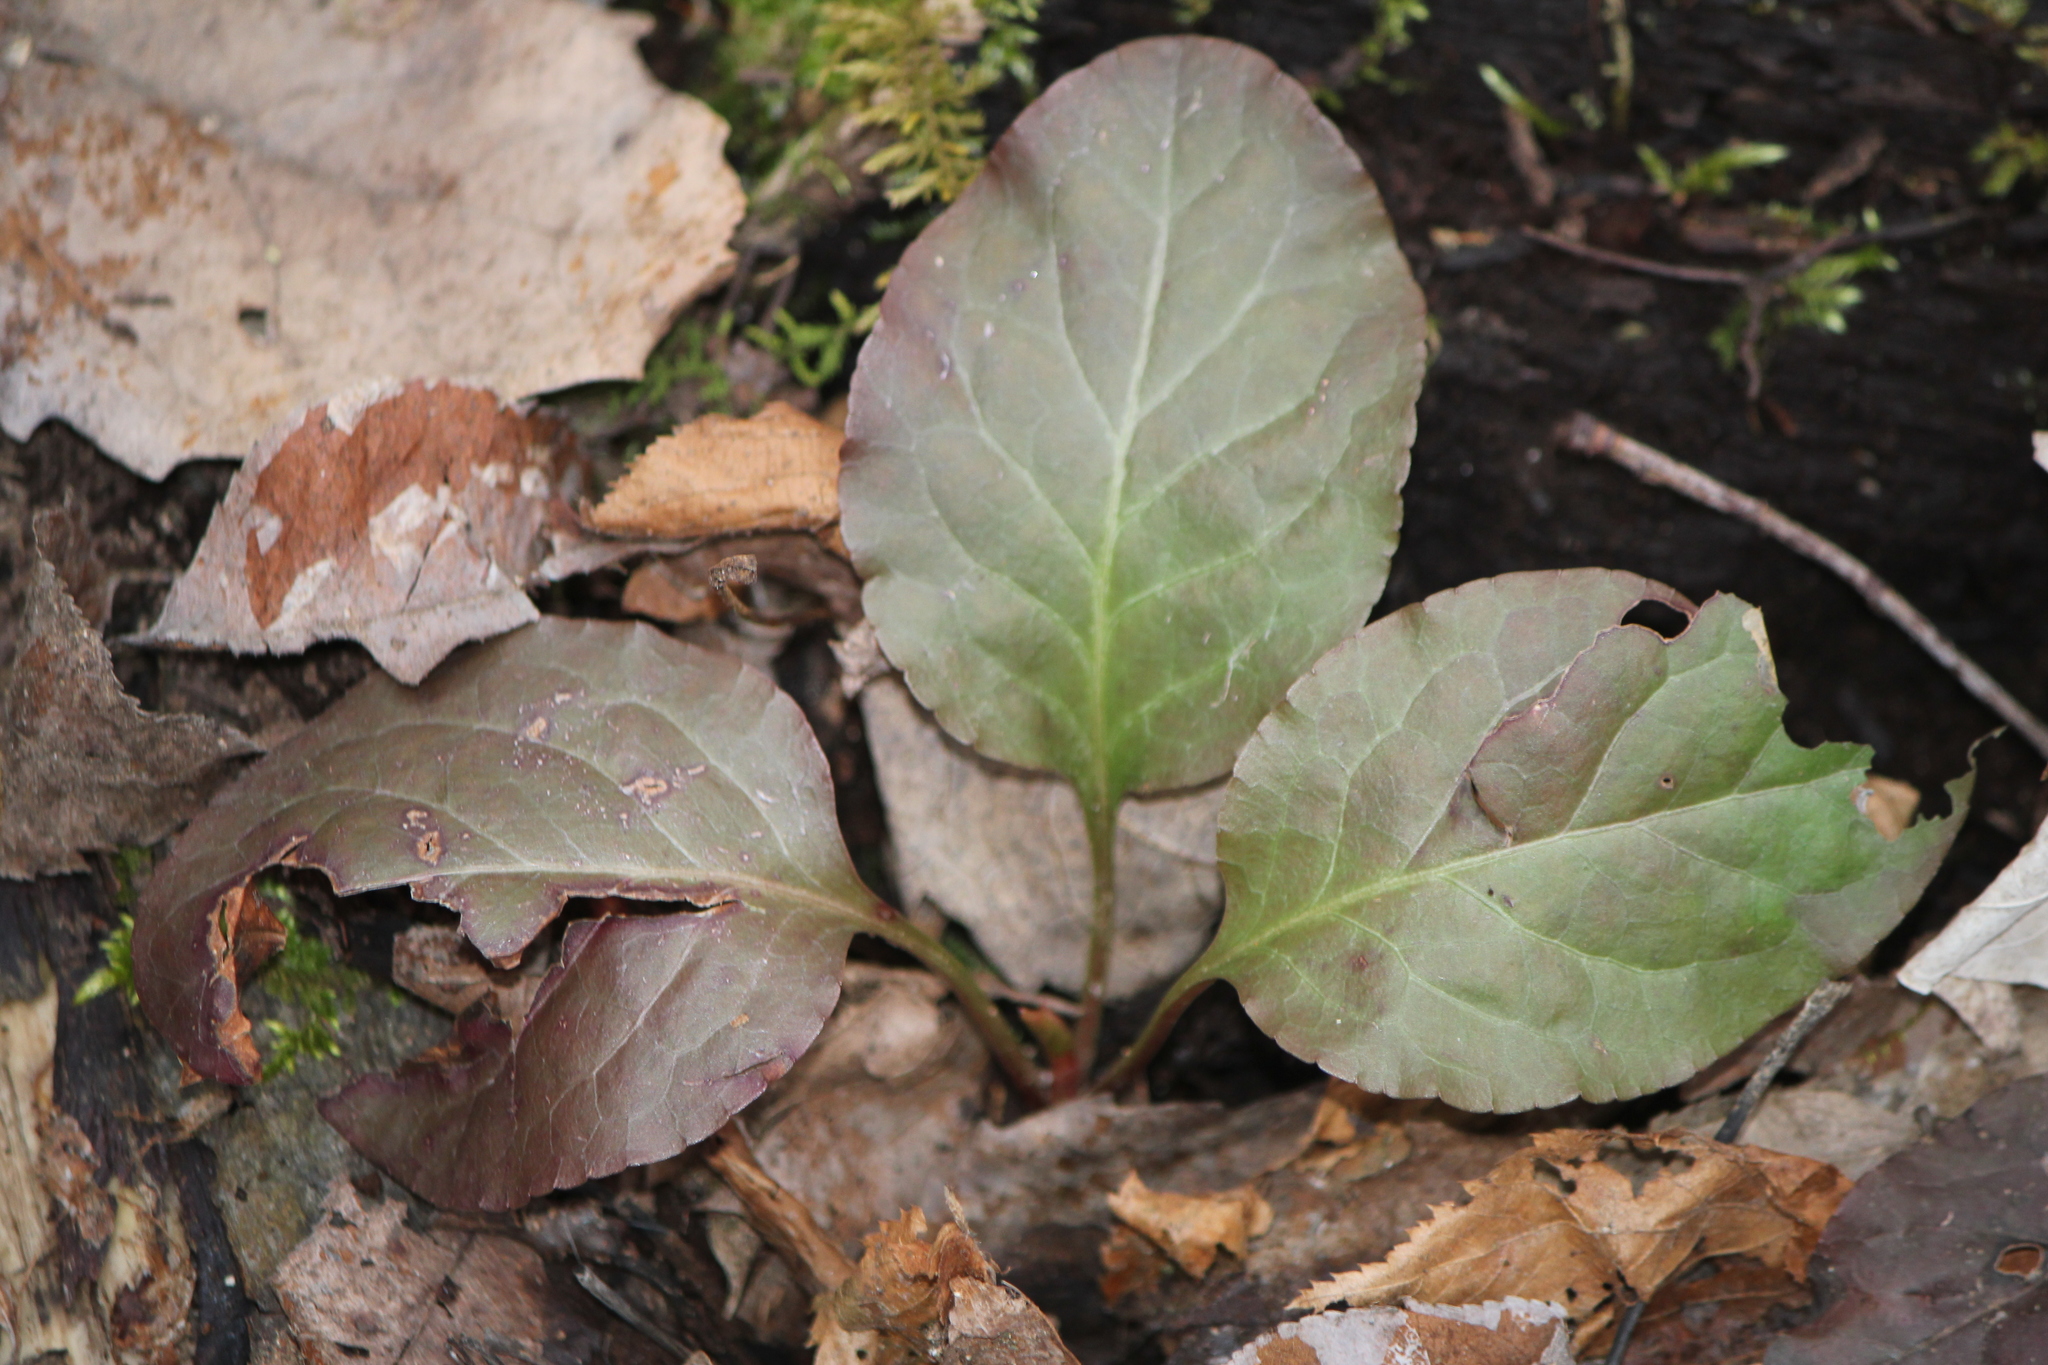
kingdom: Plantae
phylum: Tracheophyta
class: Magnoliopsida
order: Ericales
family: Ericaceae
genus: Pyrola
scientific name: Pyrola elliptica
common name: Shinleaf
